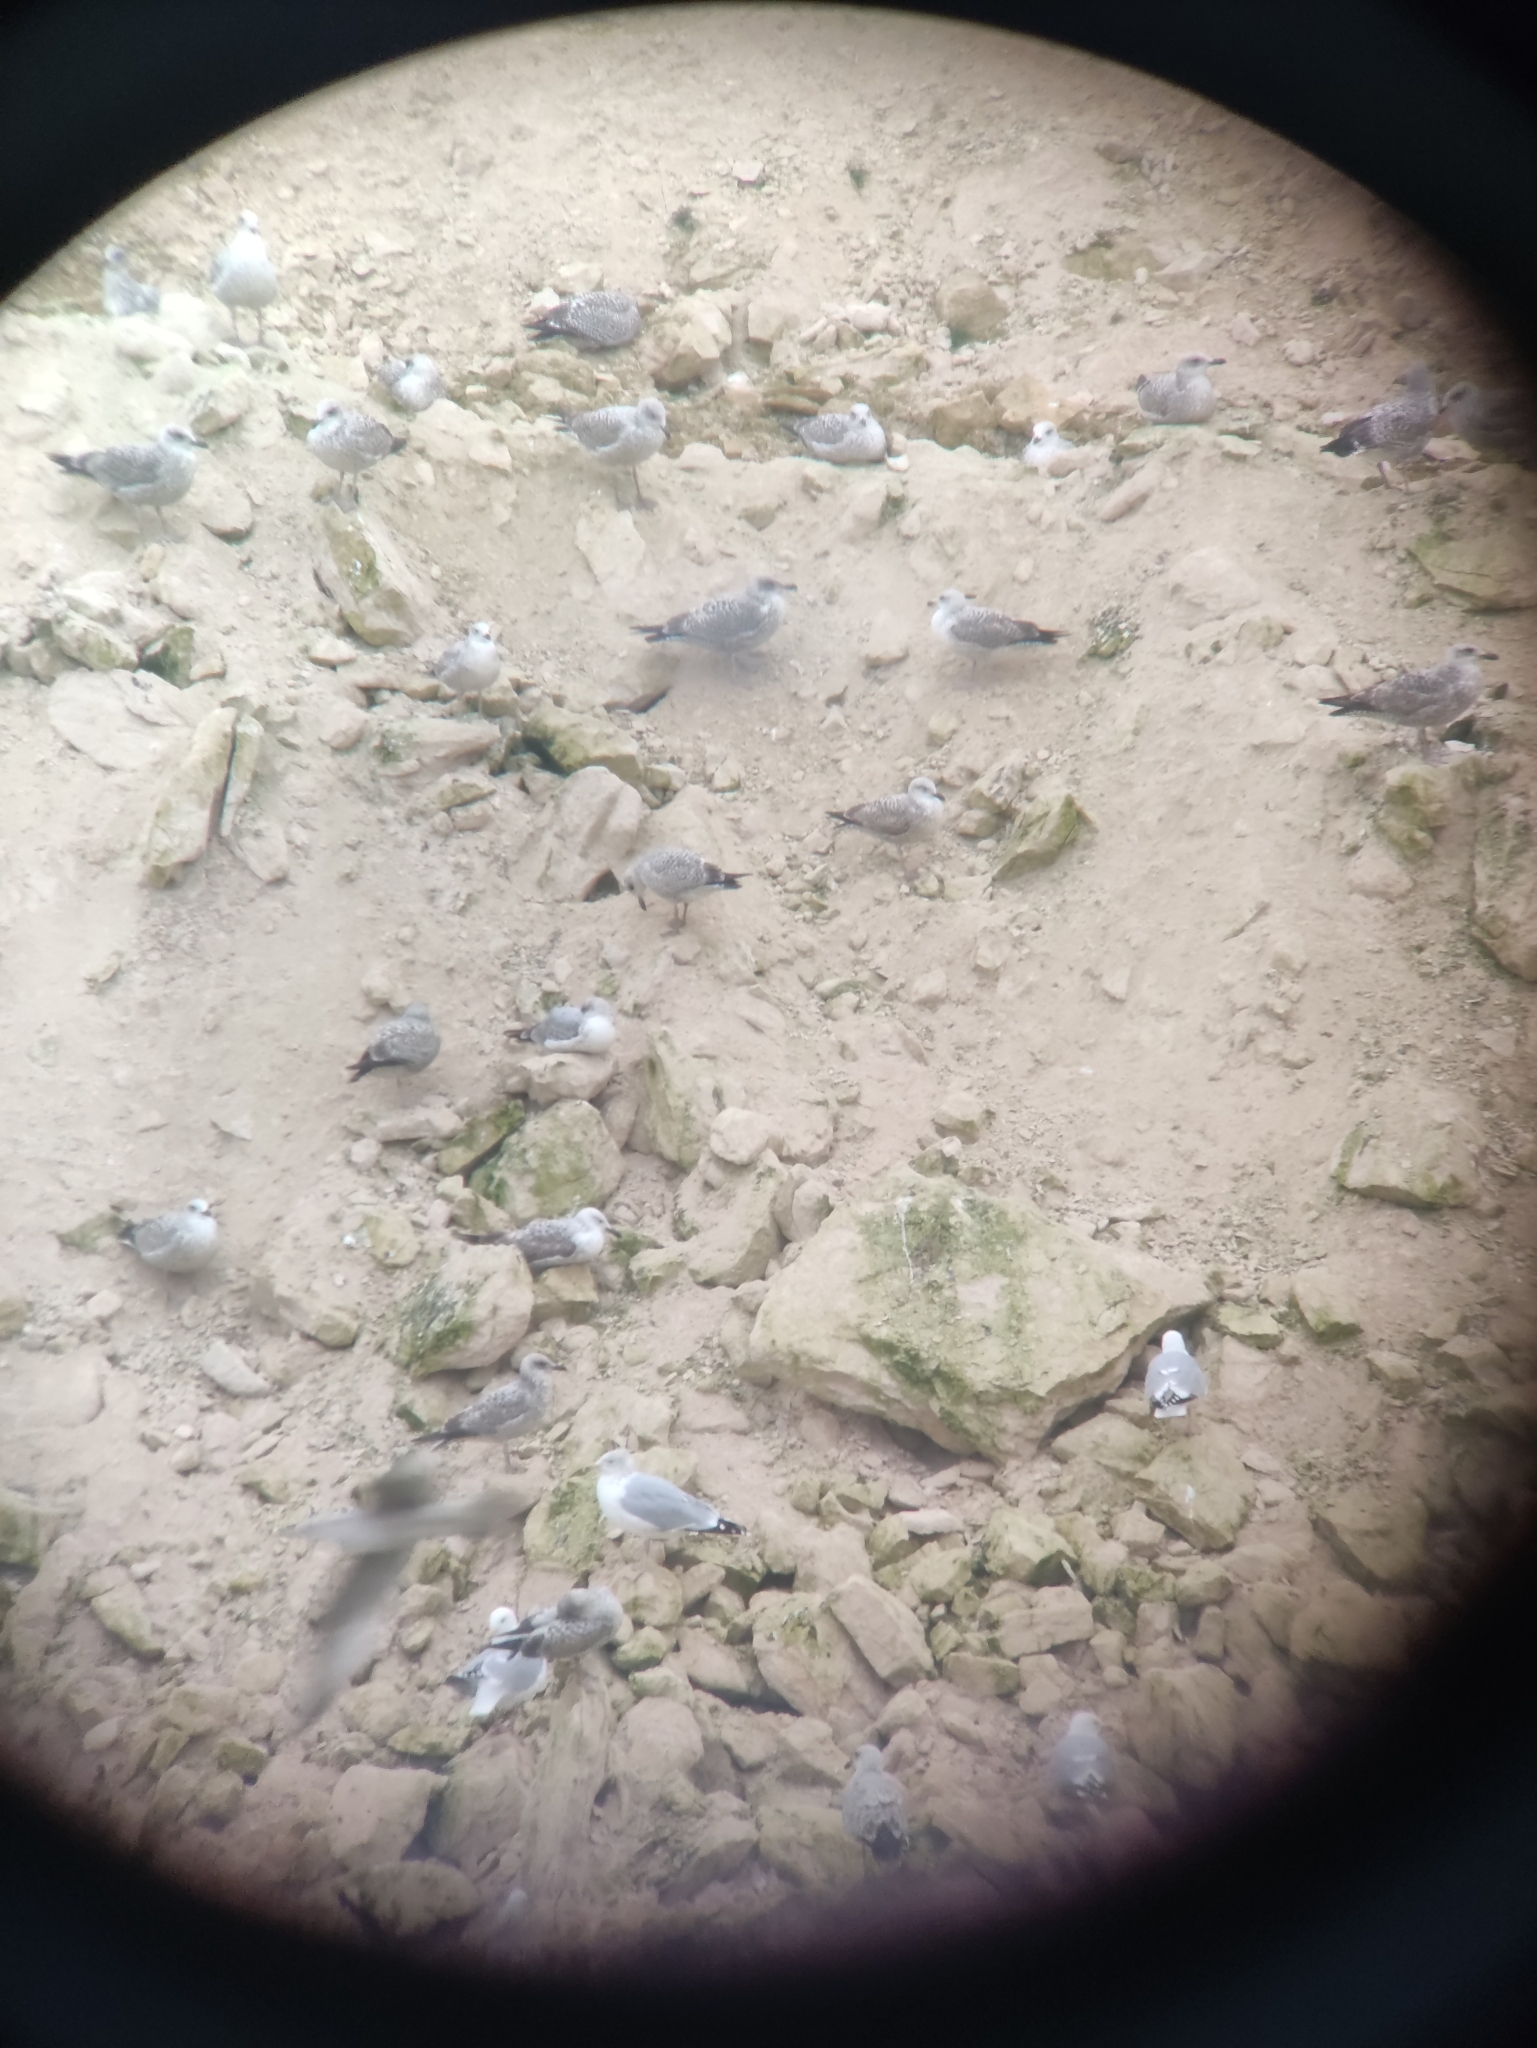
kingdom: Animalia
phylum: Chordata
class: Aves
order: Charadriiformes
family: Laridae
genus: Larus
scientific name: Larus cachinnans
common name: Caspian gull
